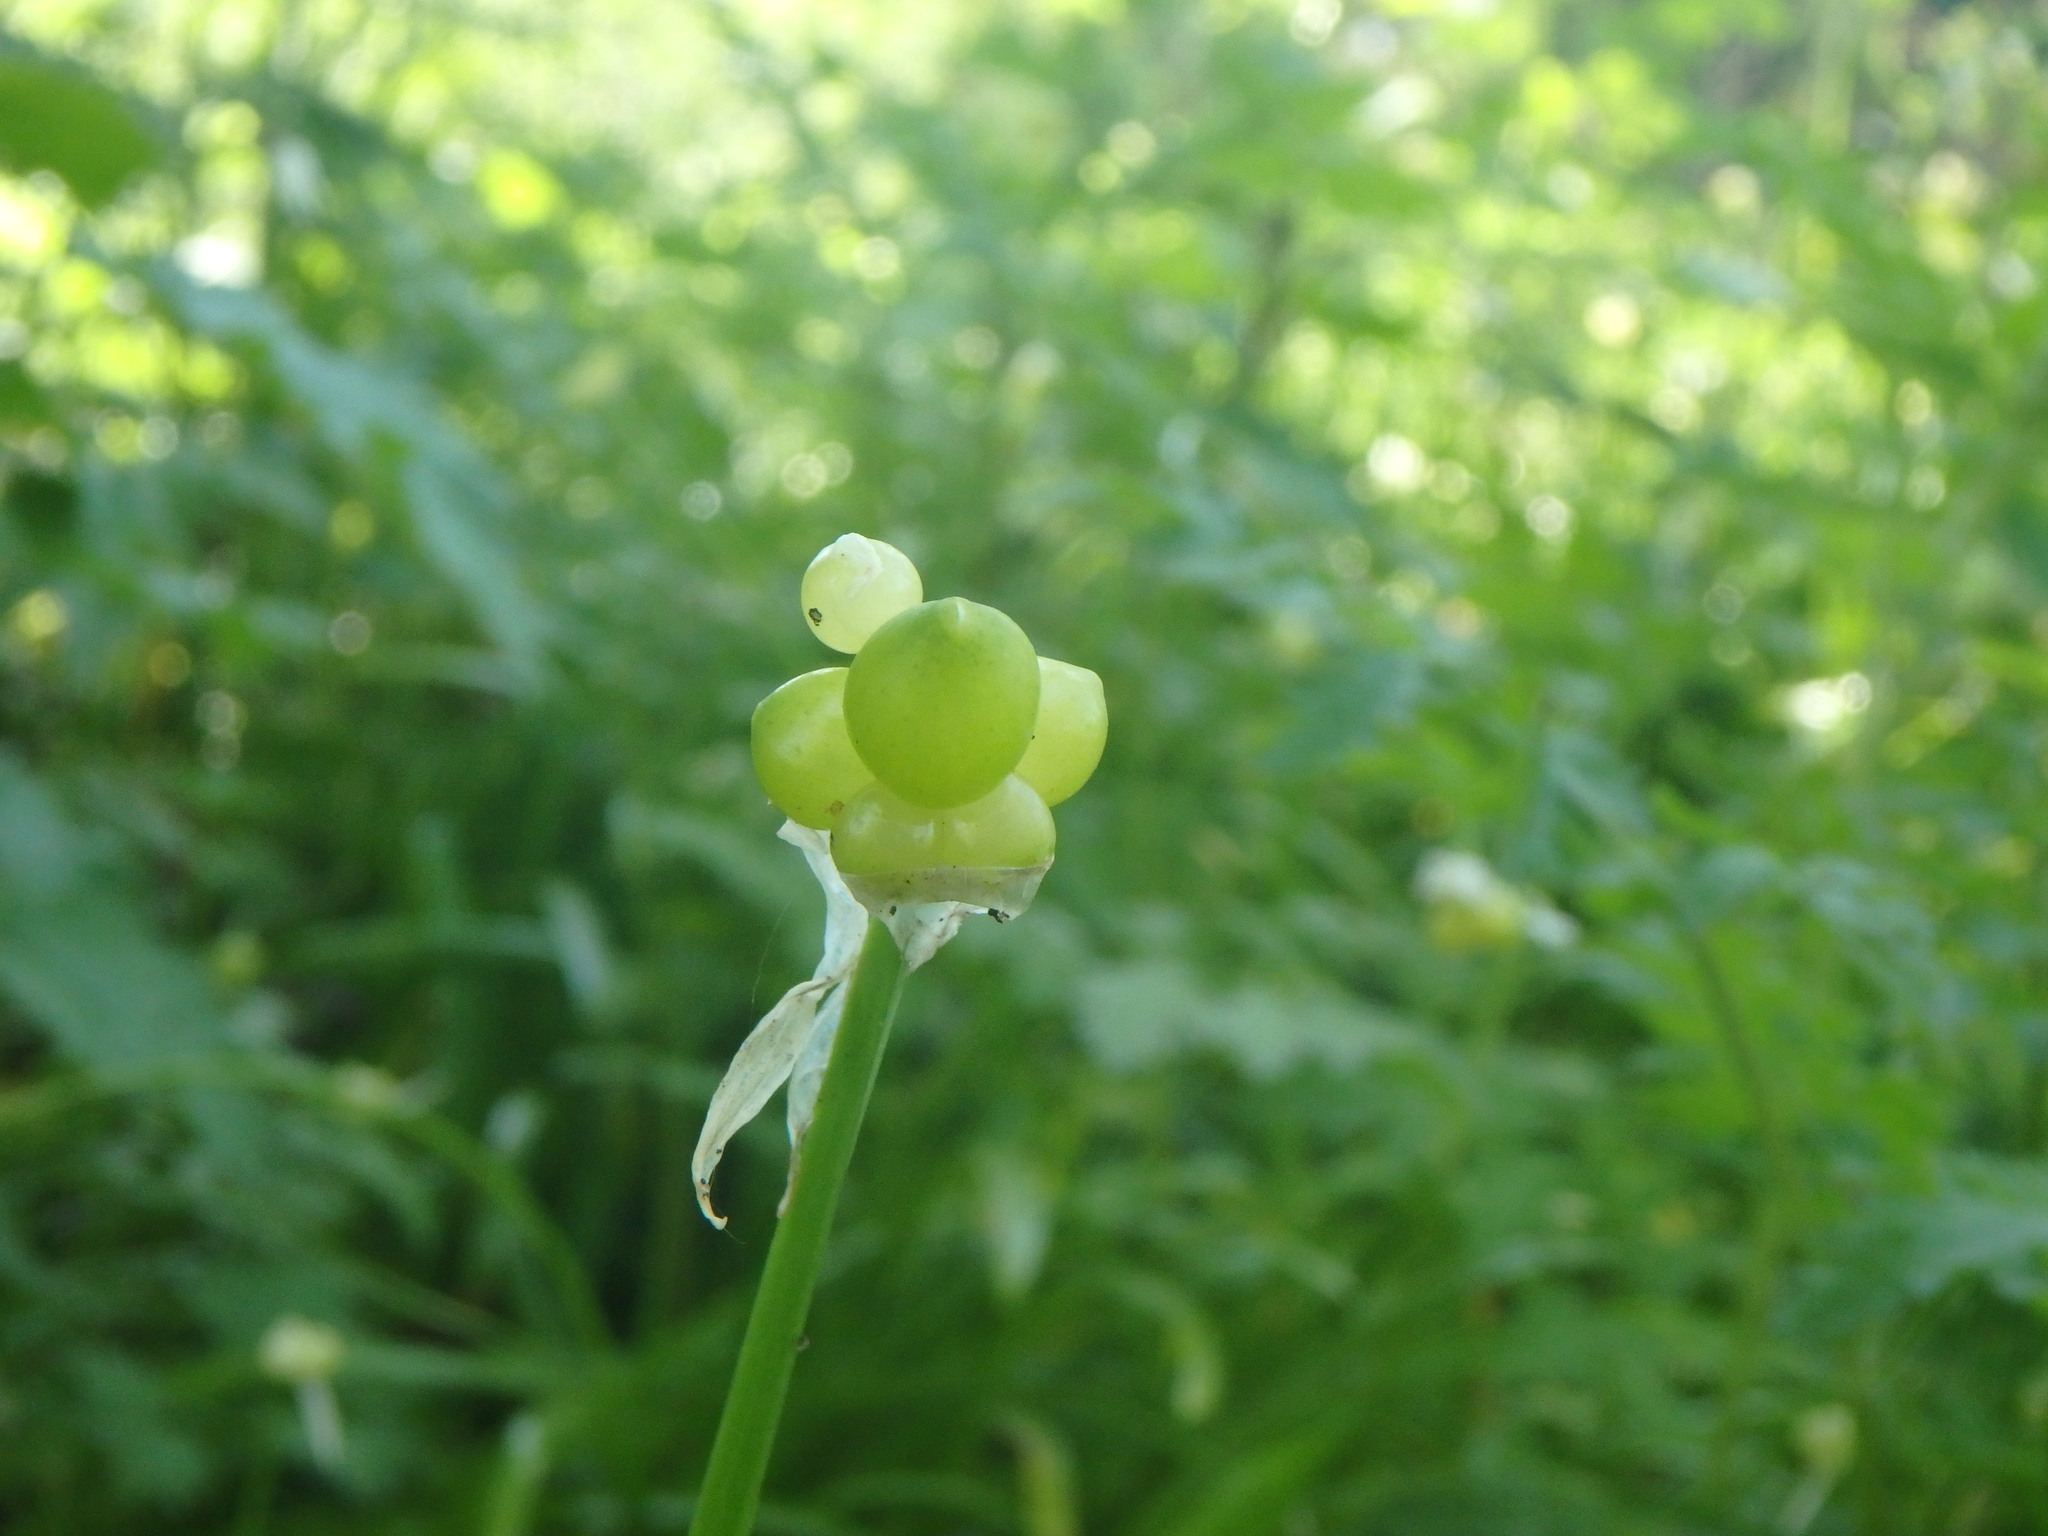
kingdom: Plantae
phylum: Tracheophyta
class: Liliopsida
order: Asparagales
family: Amaryllidaceae
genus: Allium
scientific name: Allium paradoxum
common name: Few-flowered garlic
